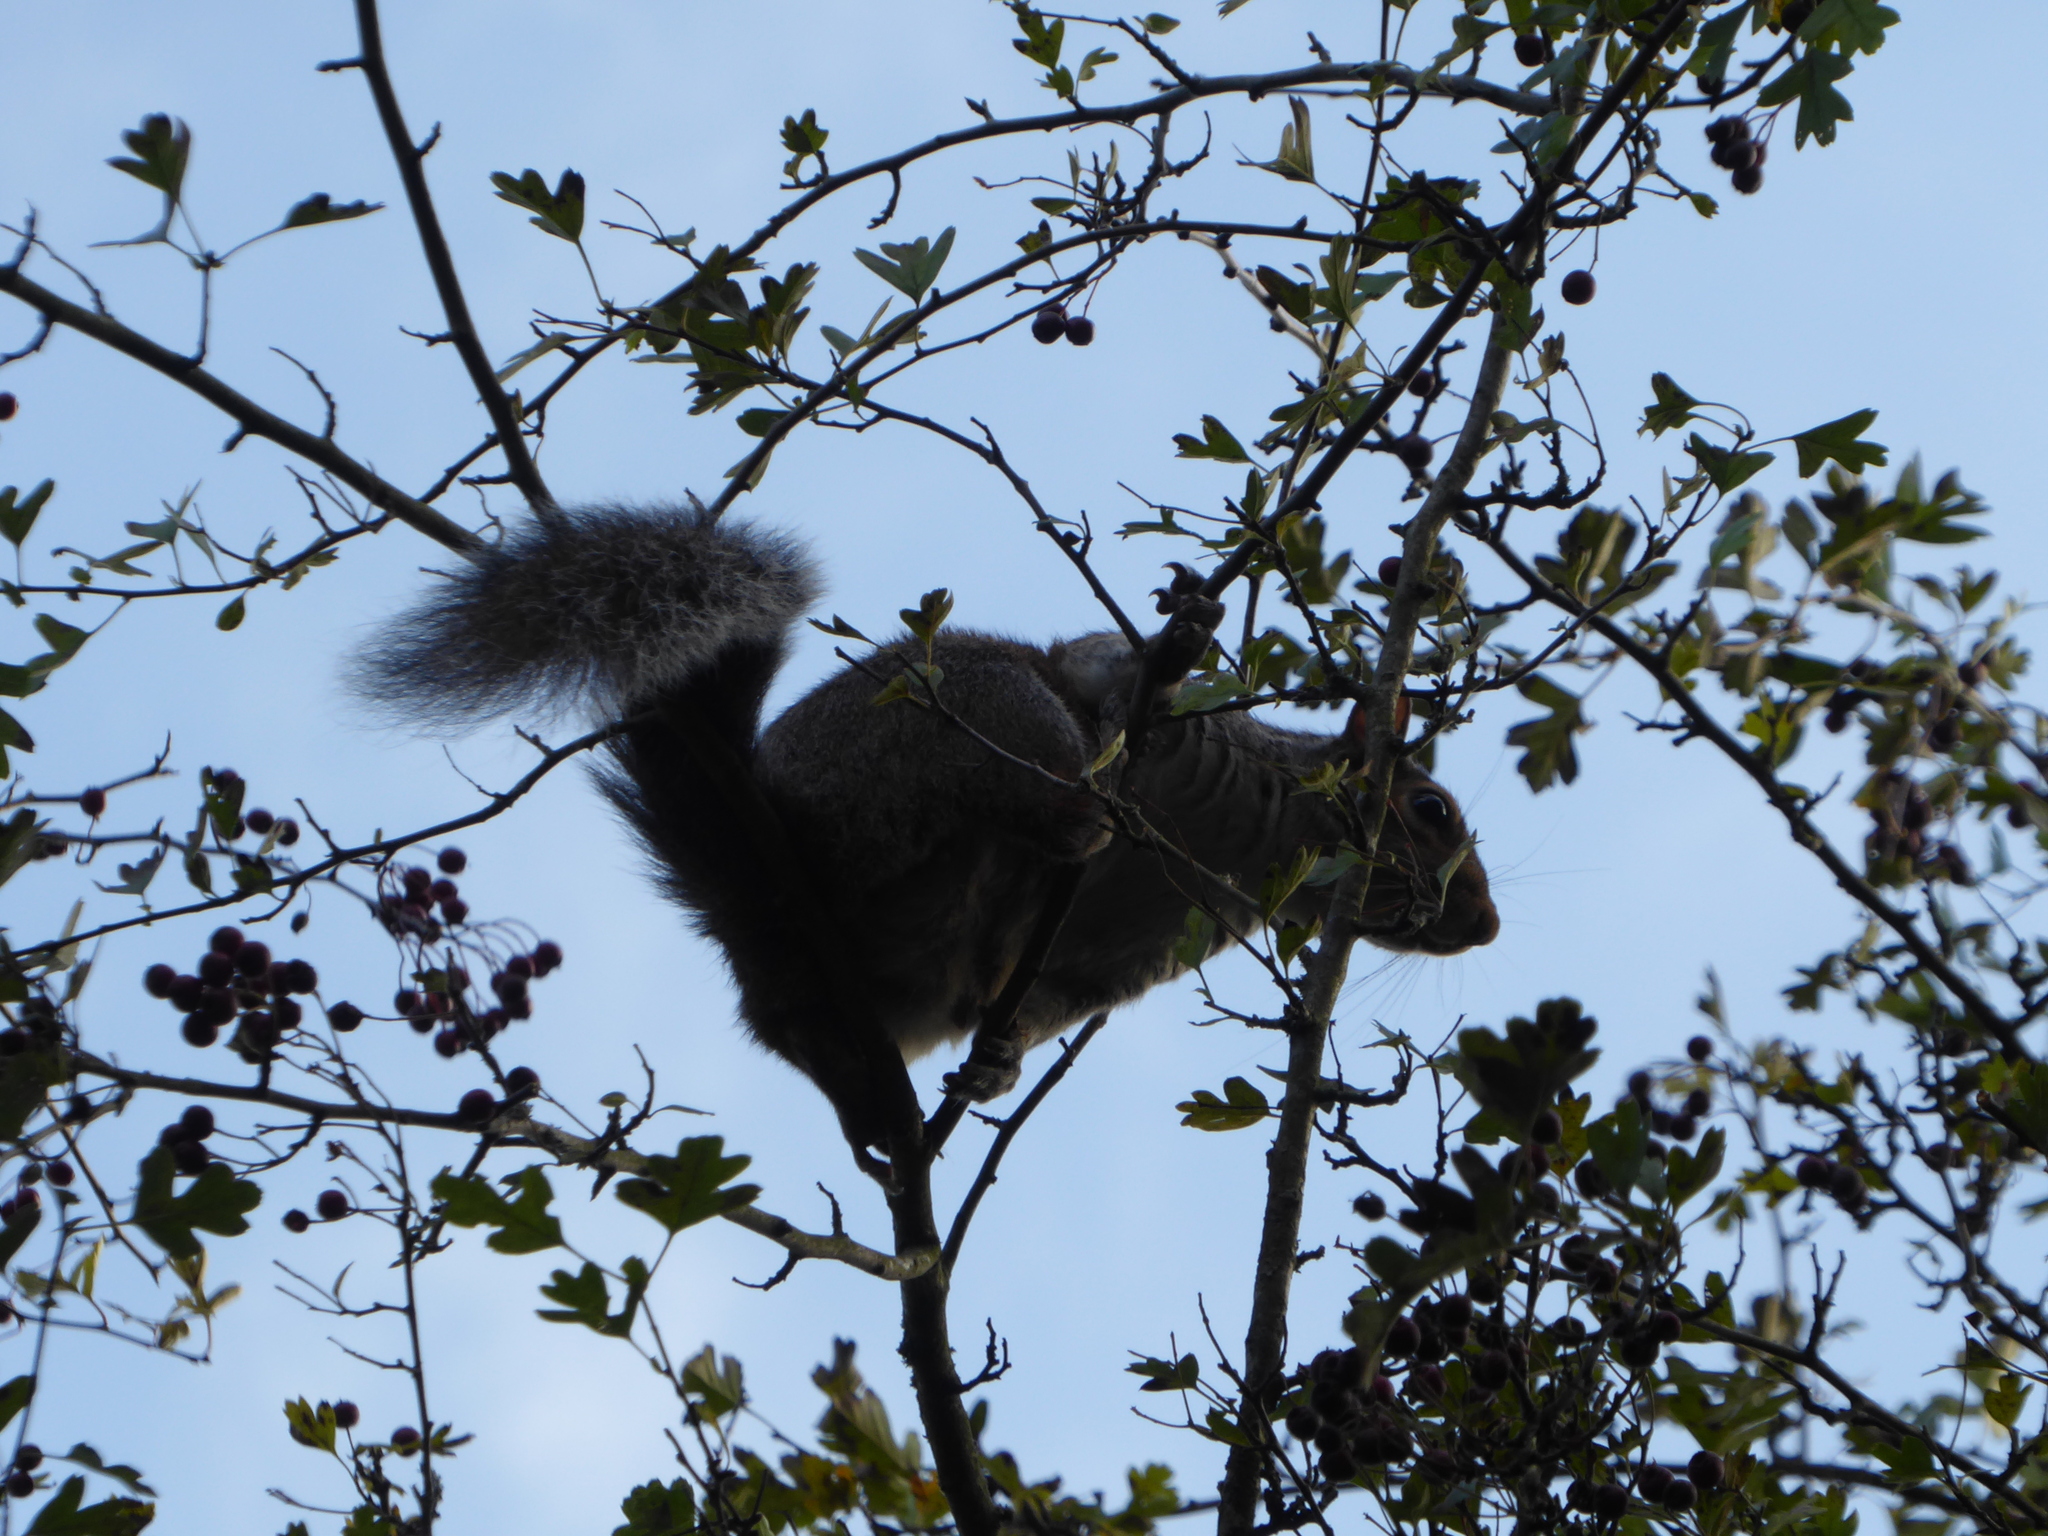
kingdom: Animalia
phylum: Chordata
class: Mammalia
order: Rodentia
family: Sciuridae
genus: Sciurus
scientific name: Sciurus carolinensis
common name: Eastern gray squirrel
